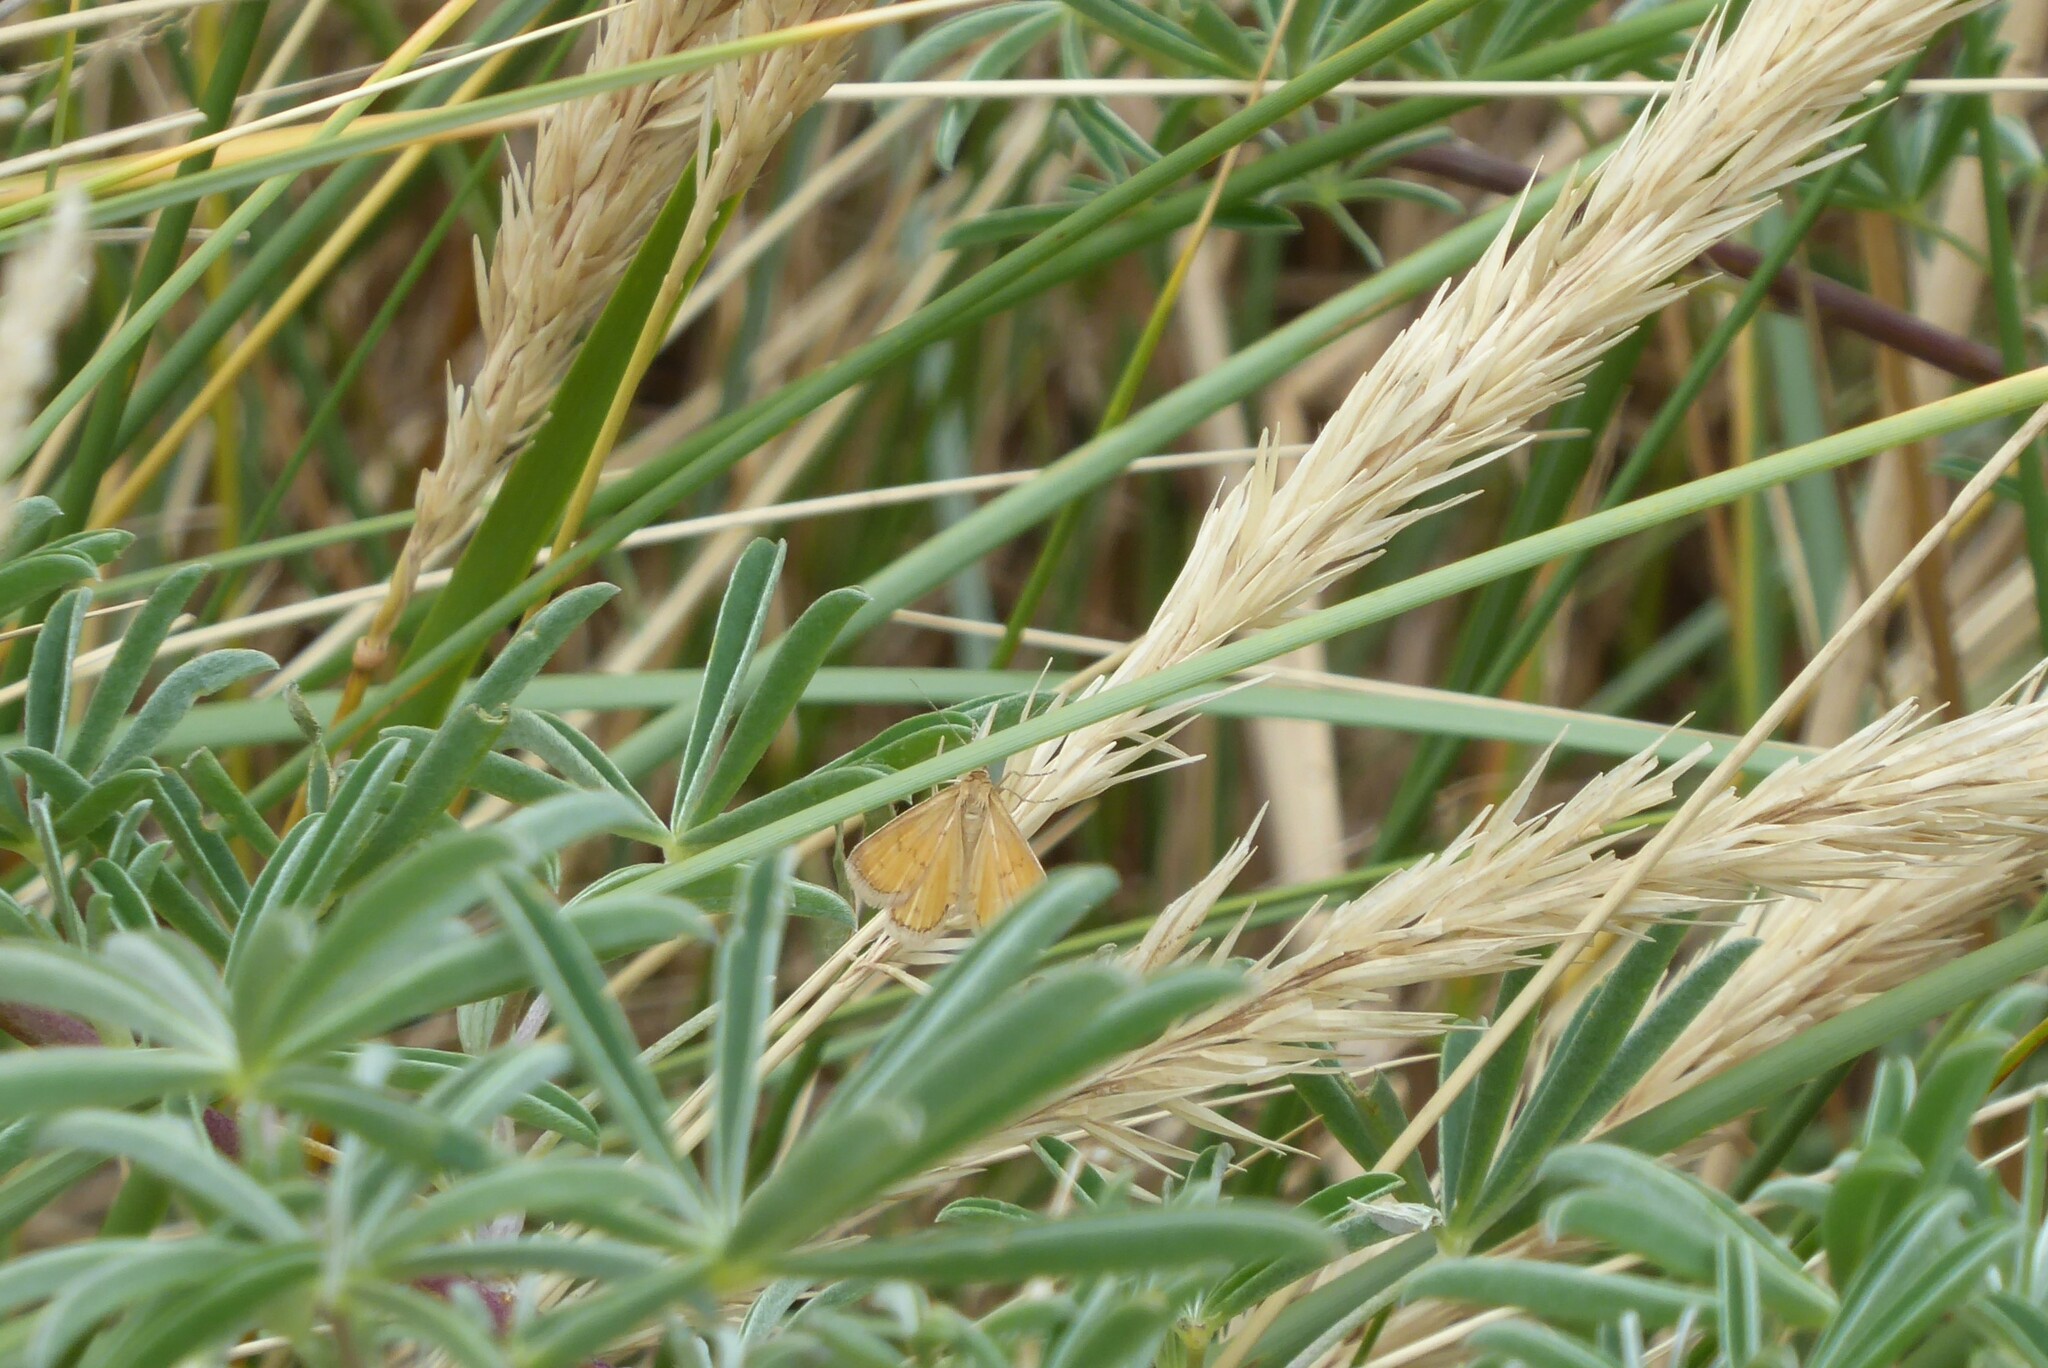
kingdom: Animalia
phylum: Arthropoda
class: Insecta
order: Lepidoptera
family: Geometridae
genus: Asaphodes
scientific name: Asaphodes abrogata
